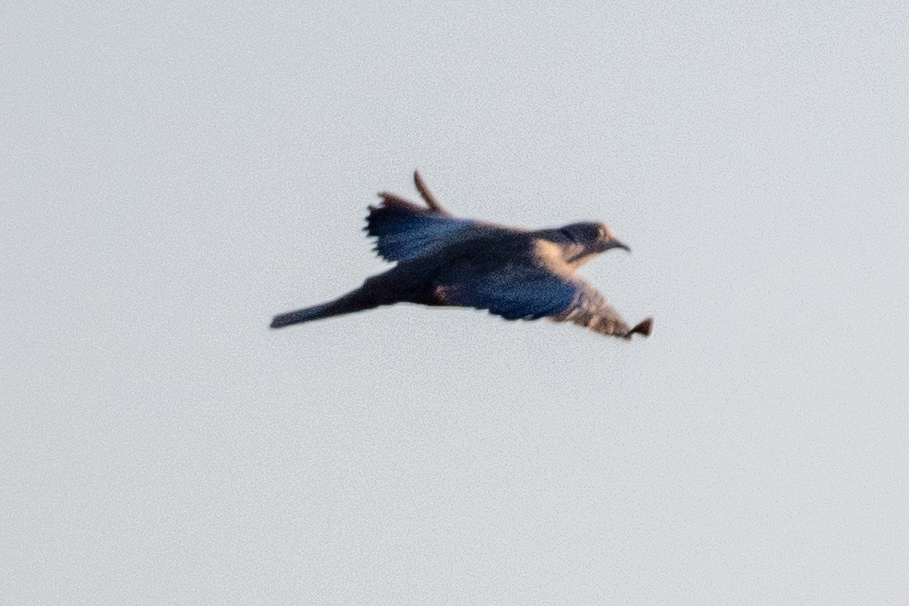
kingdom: Animalia
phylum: Chordata
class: Aves
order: Columbiformes
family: Columbidae
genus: Streptopelia
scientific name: Streptopelia decaocto
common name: Eurasian collared dove
